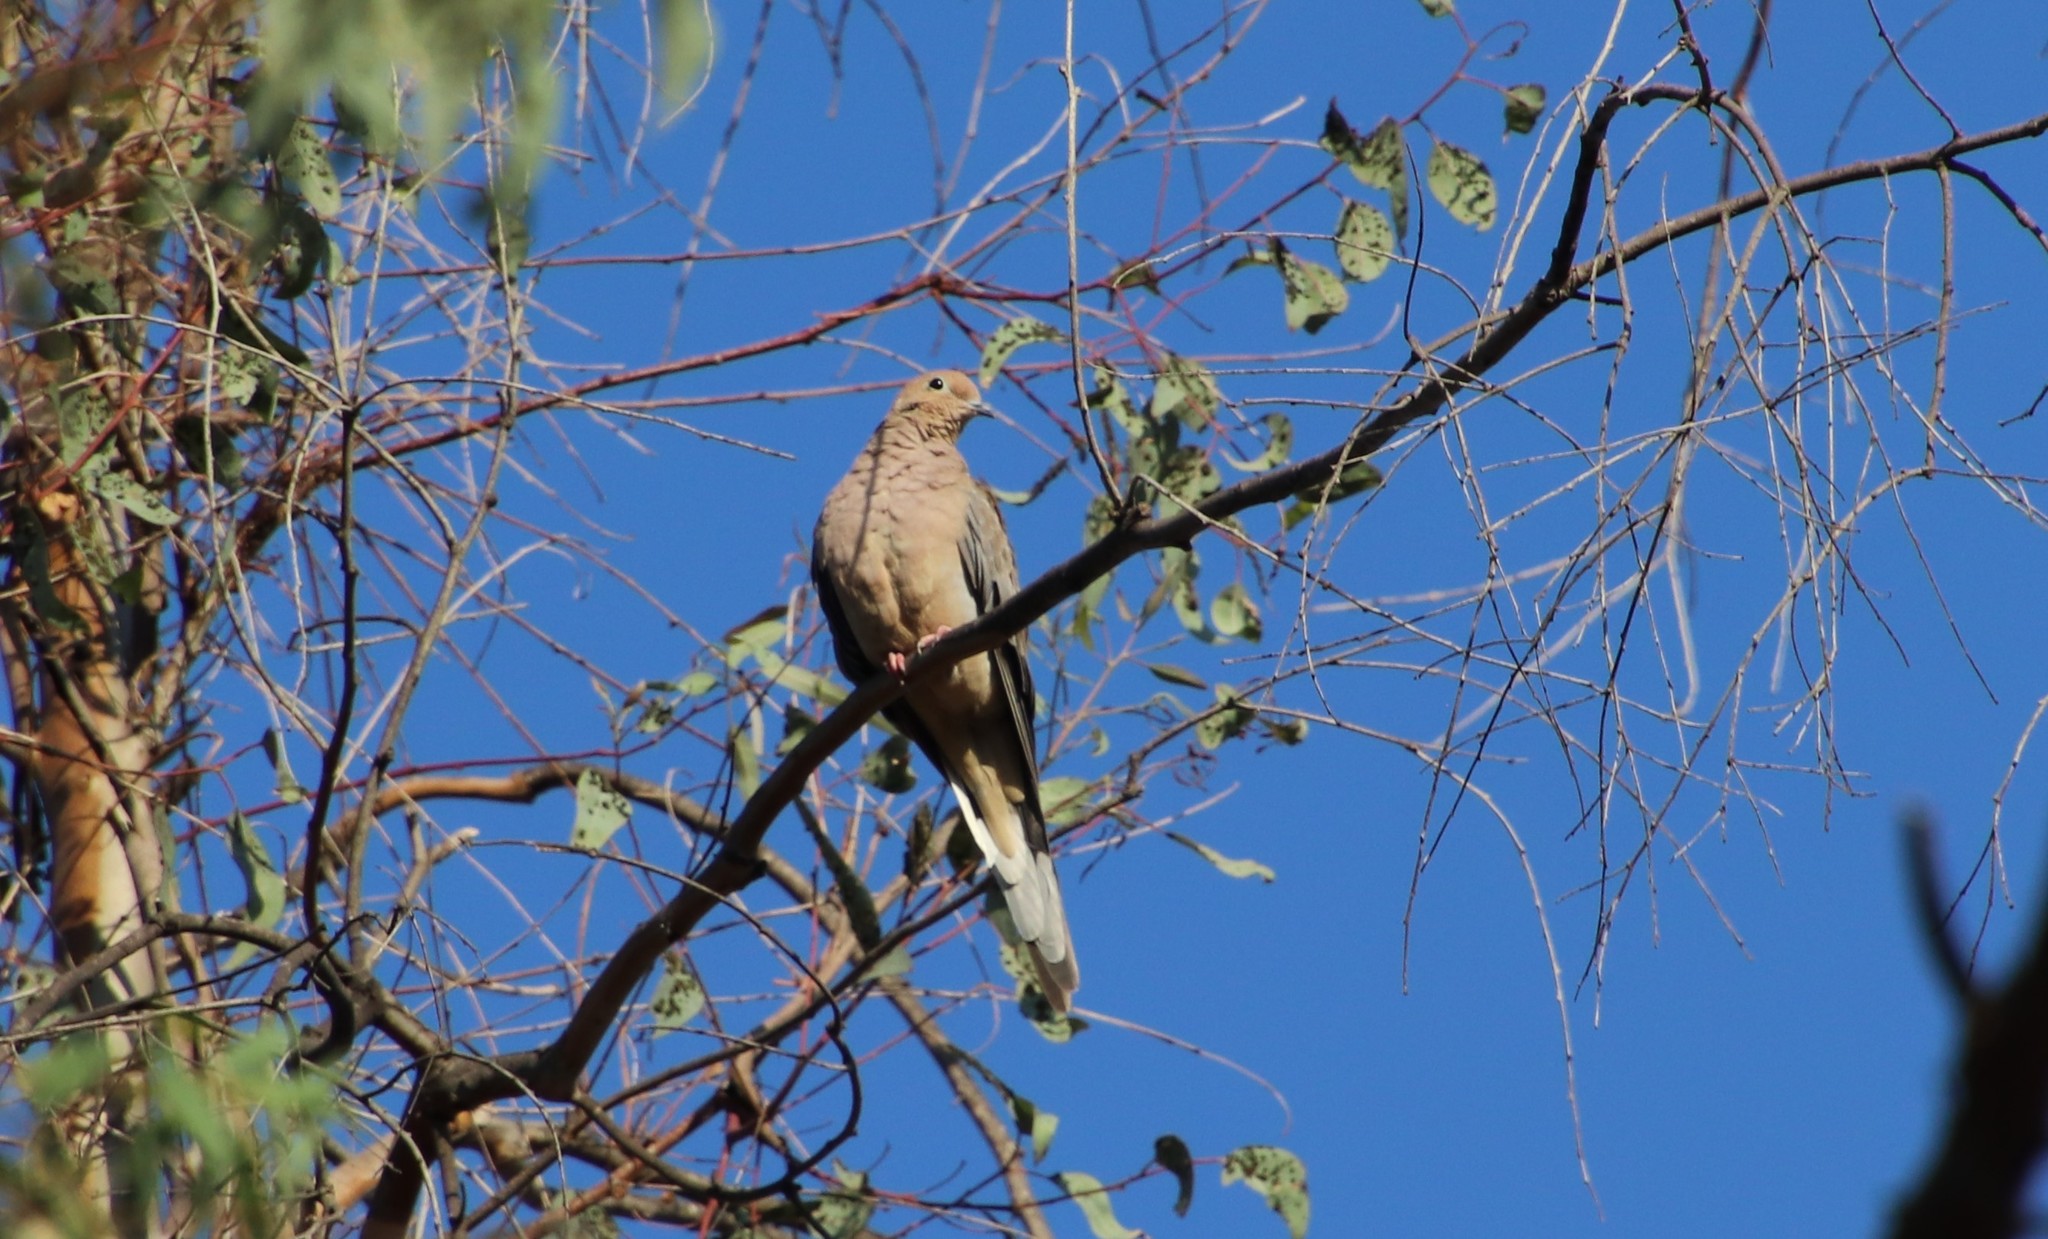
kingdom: Animalia
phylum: Chordata
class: Aves
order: Columbiformes
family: Columbidae
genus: Zenaida
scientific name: Zenaida macroura
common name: Mourning dove
